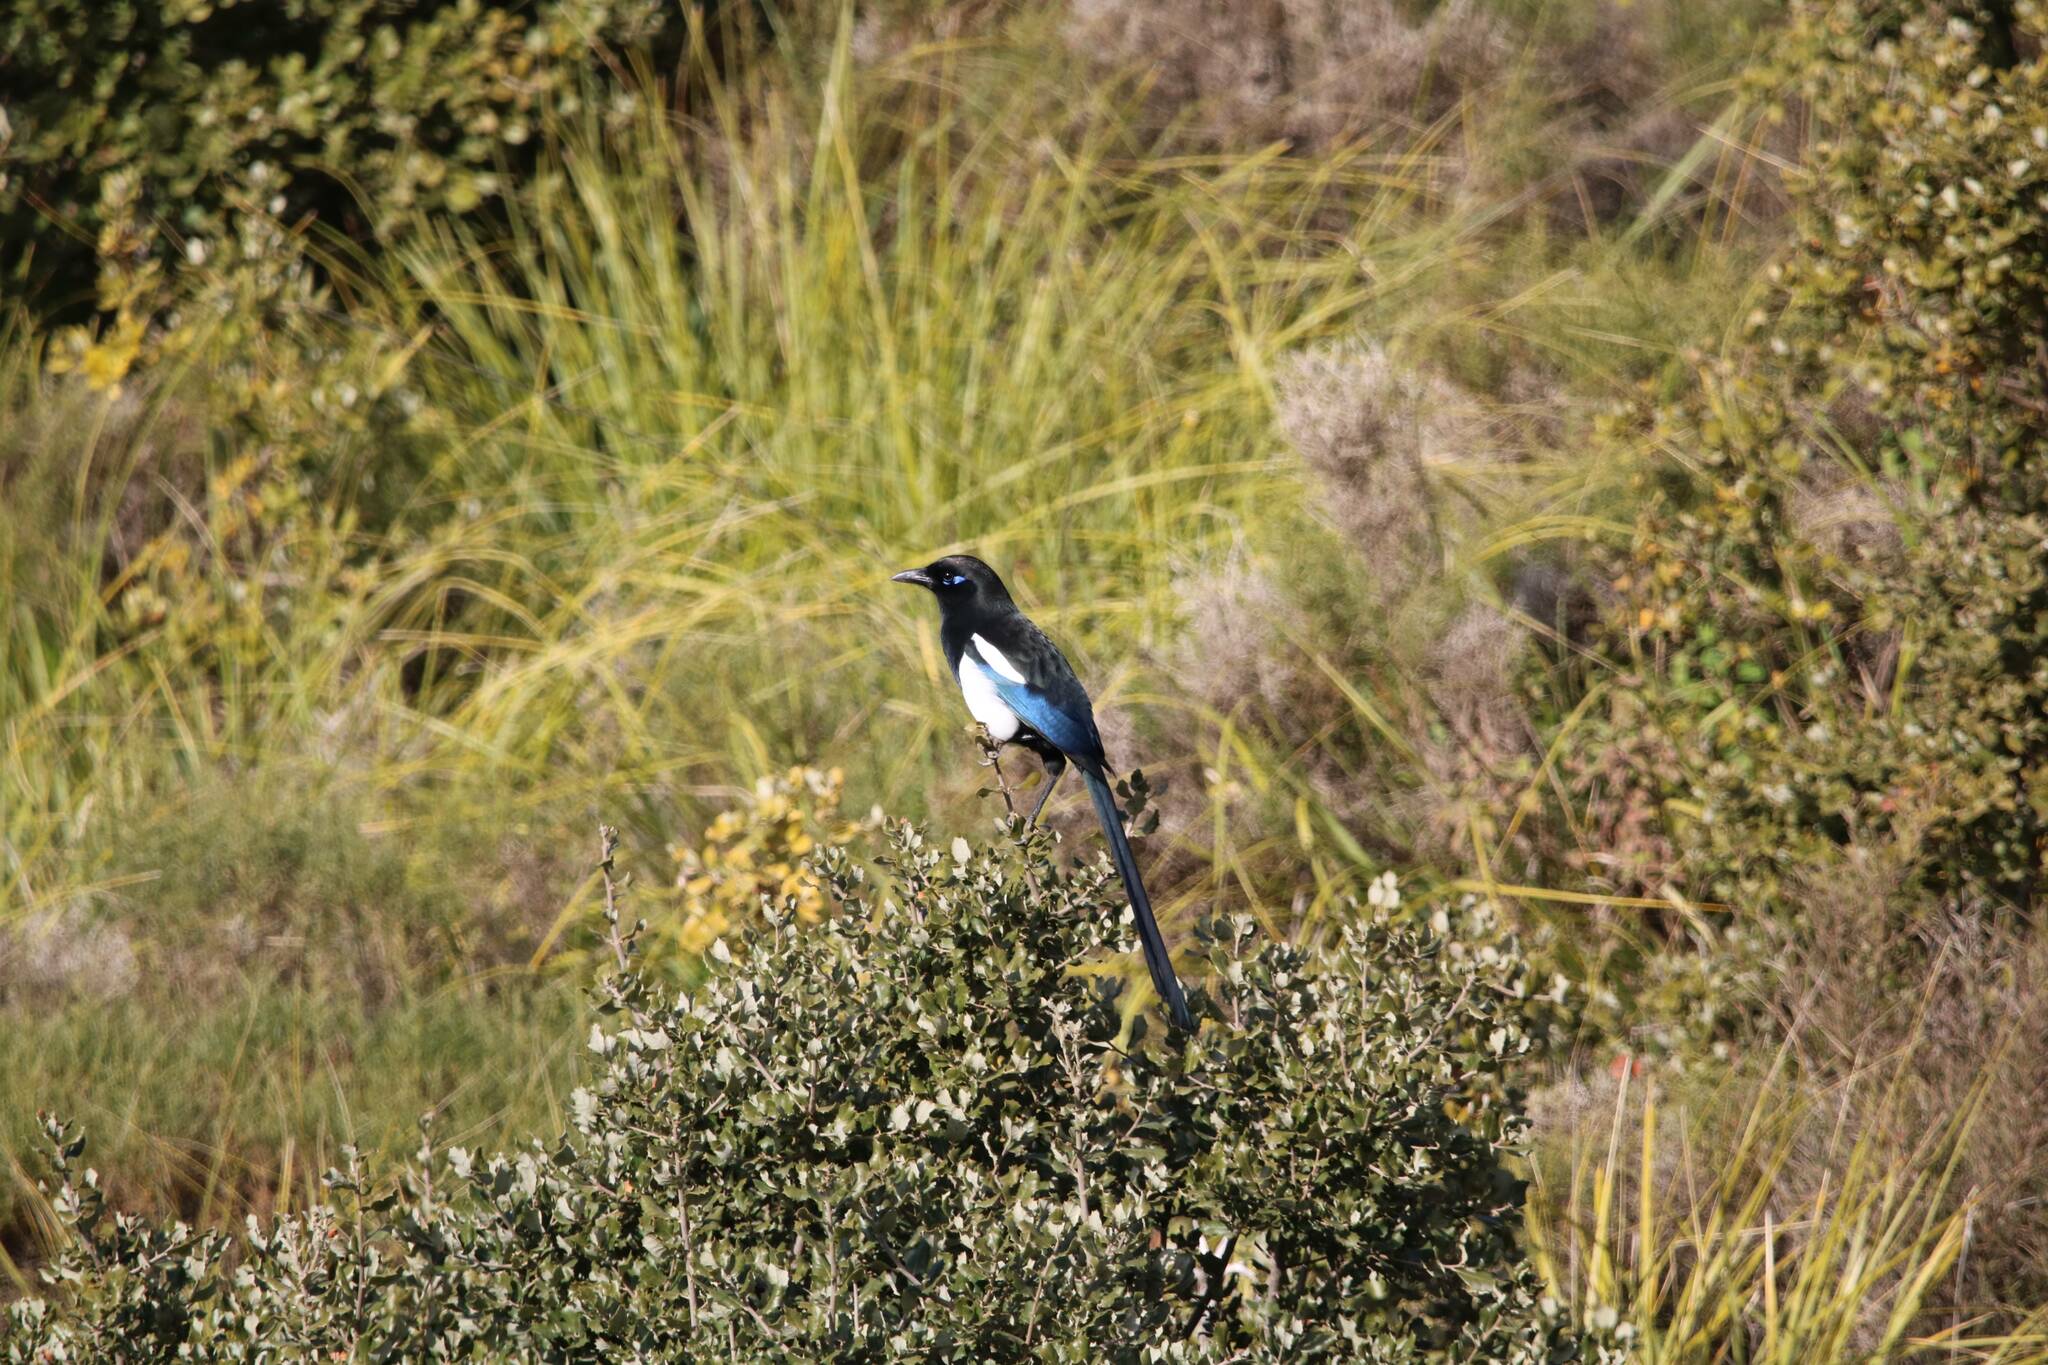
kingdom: Animalia
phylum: Chordata
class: Aves
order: Passeriformes
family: Corvidae
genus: Pica
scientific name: Pica mauritanica
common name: Maghreb magpie
